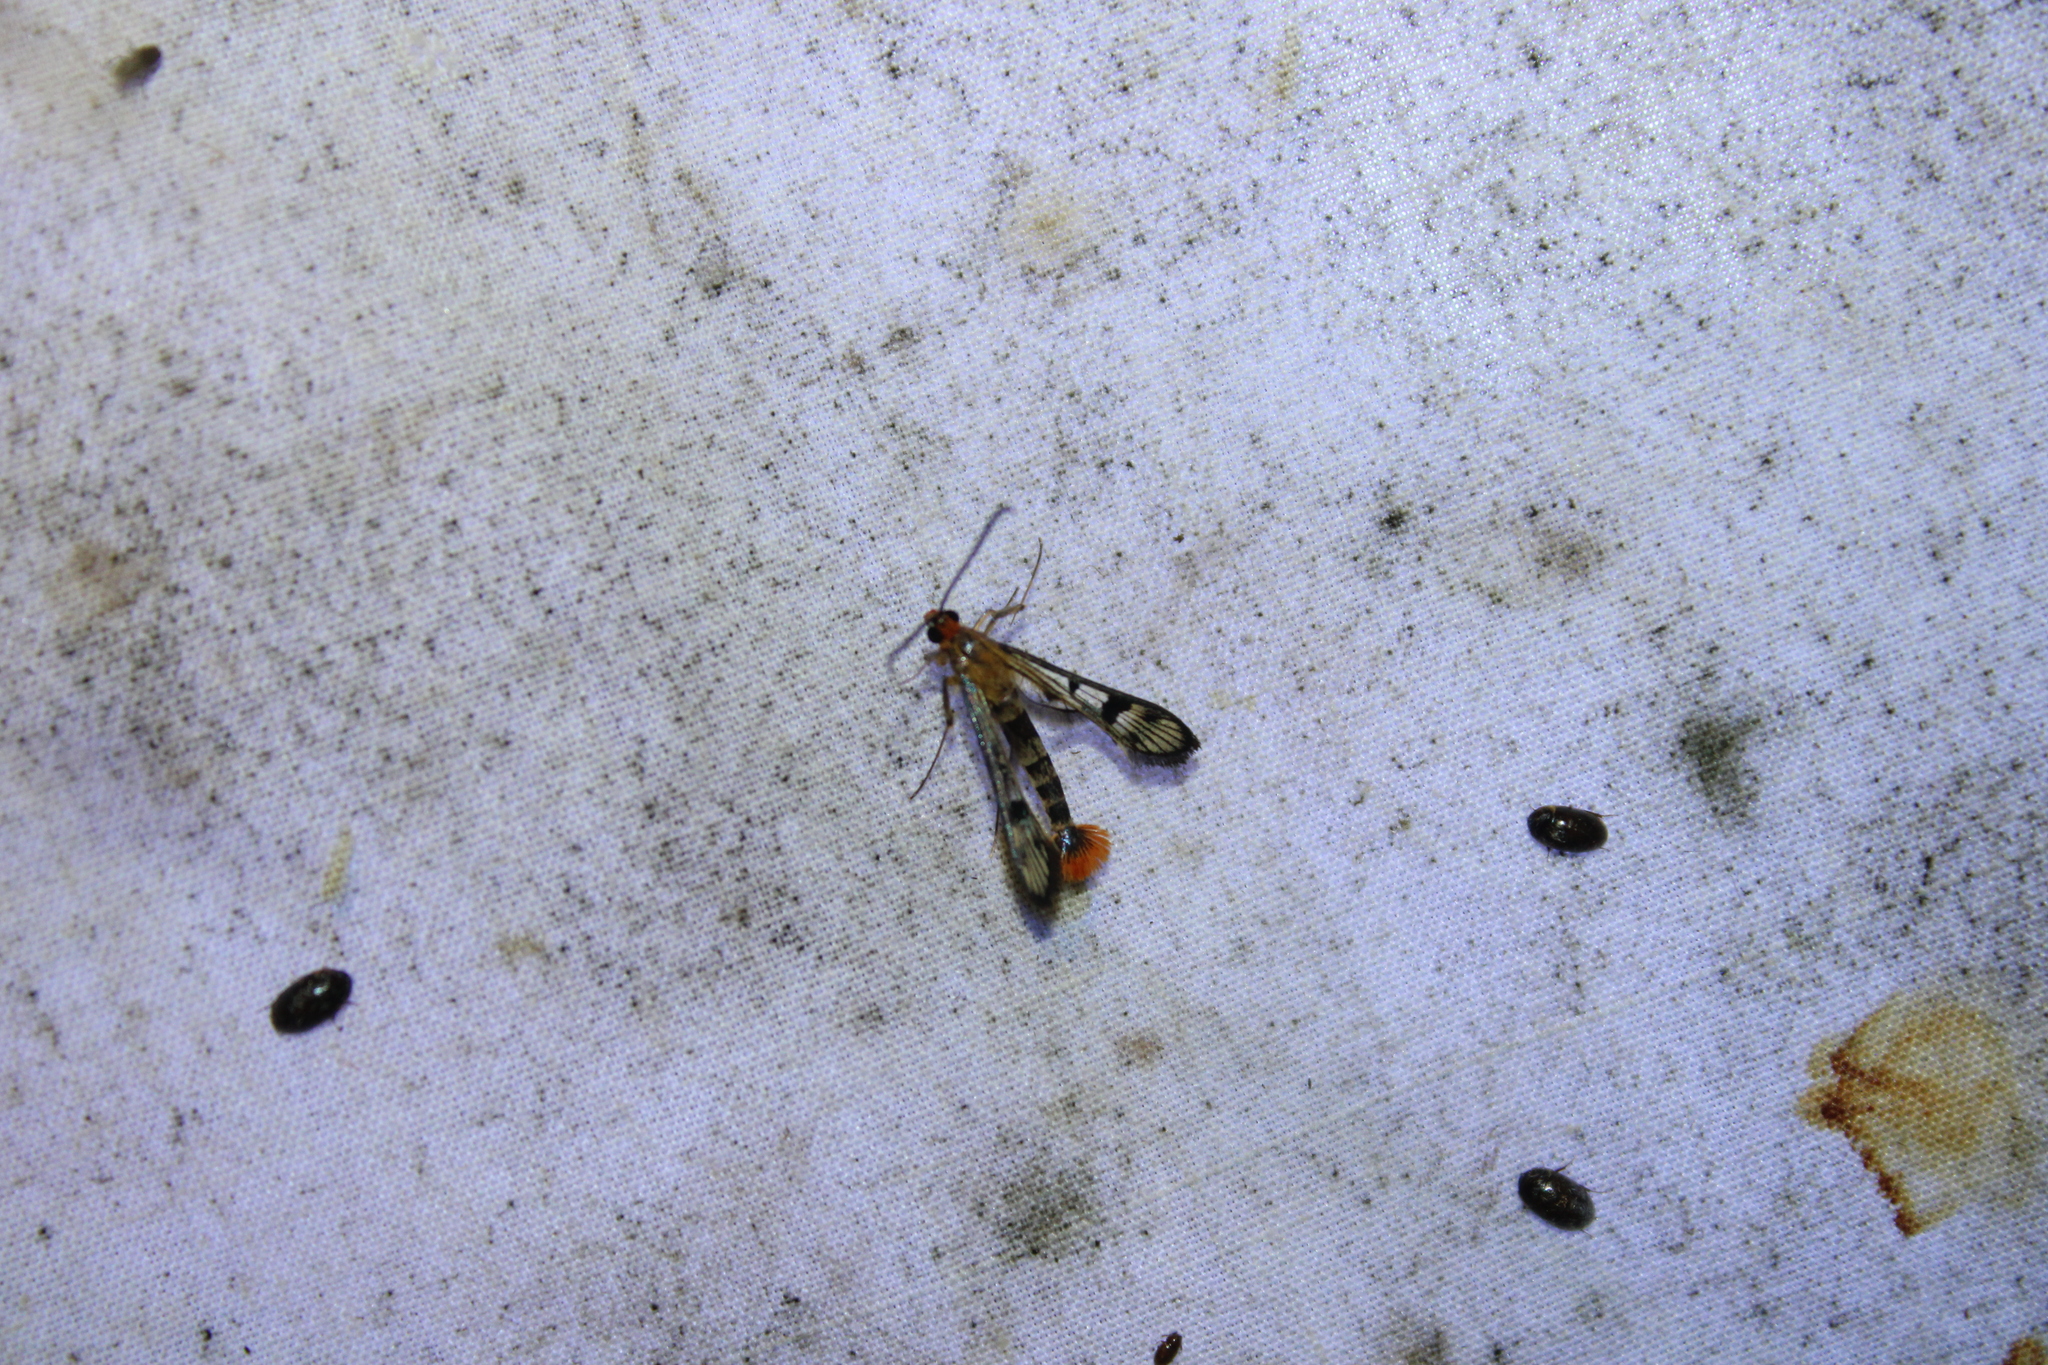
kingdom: Animalia
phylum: Arthropoda
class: Insecta
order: Lepidoptera
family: Sesiidae
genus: Synanthedon
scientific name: Synanthedon acerni
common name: Maple callus borer moth
